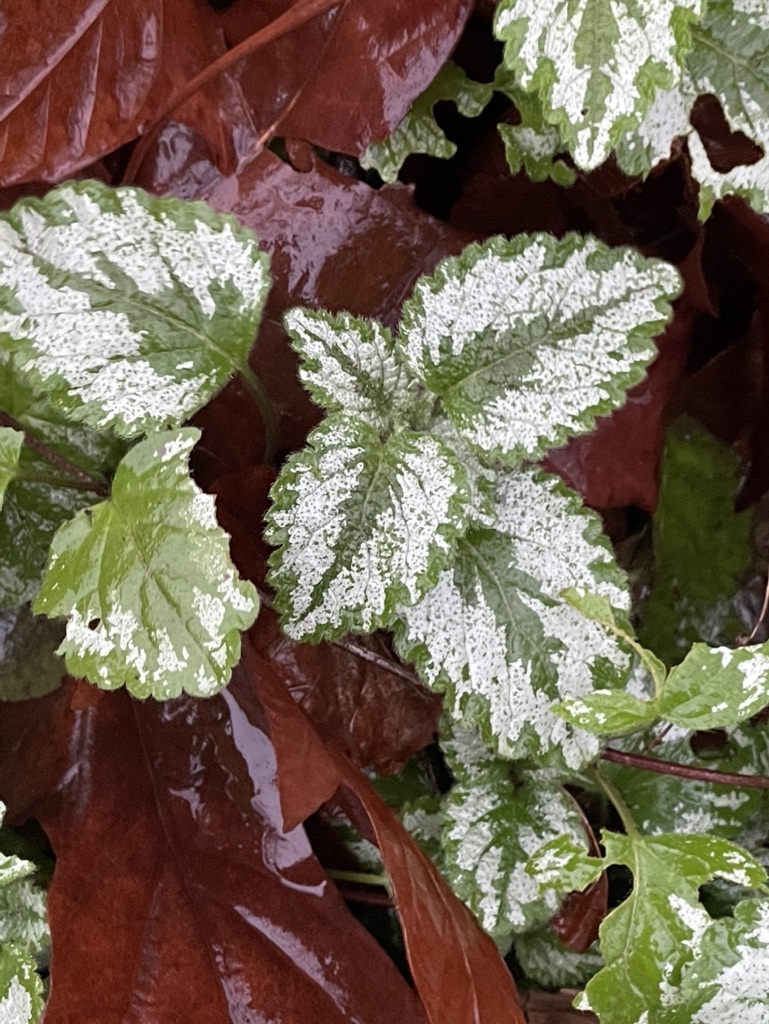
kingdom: Plantae
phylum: Tracheophyta
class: Magnoliopsida
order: Lamiales
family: Lamiaceae
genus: Lamium
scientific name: Lamium galeobdolon
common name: Yellow archangel
